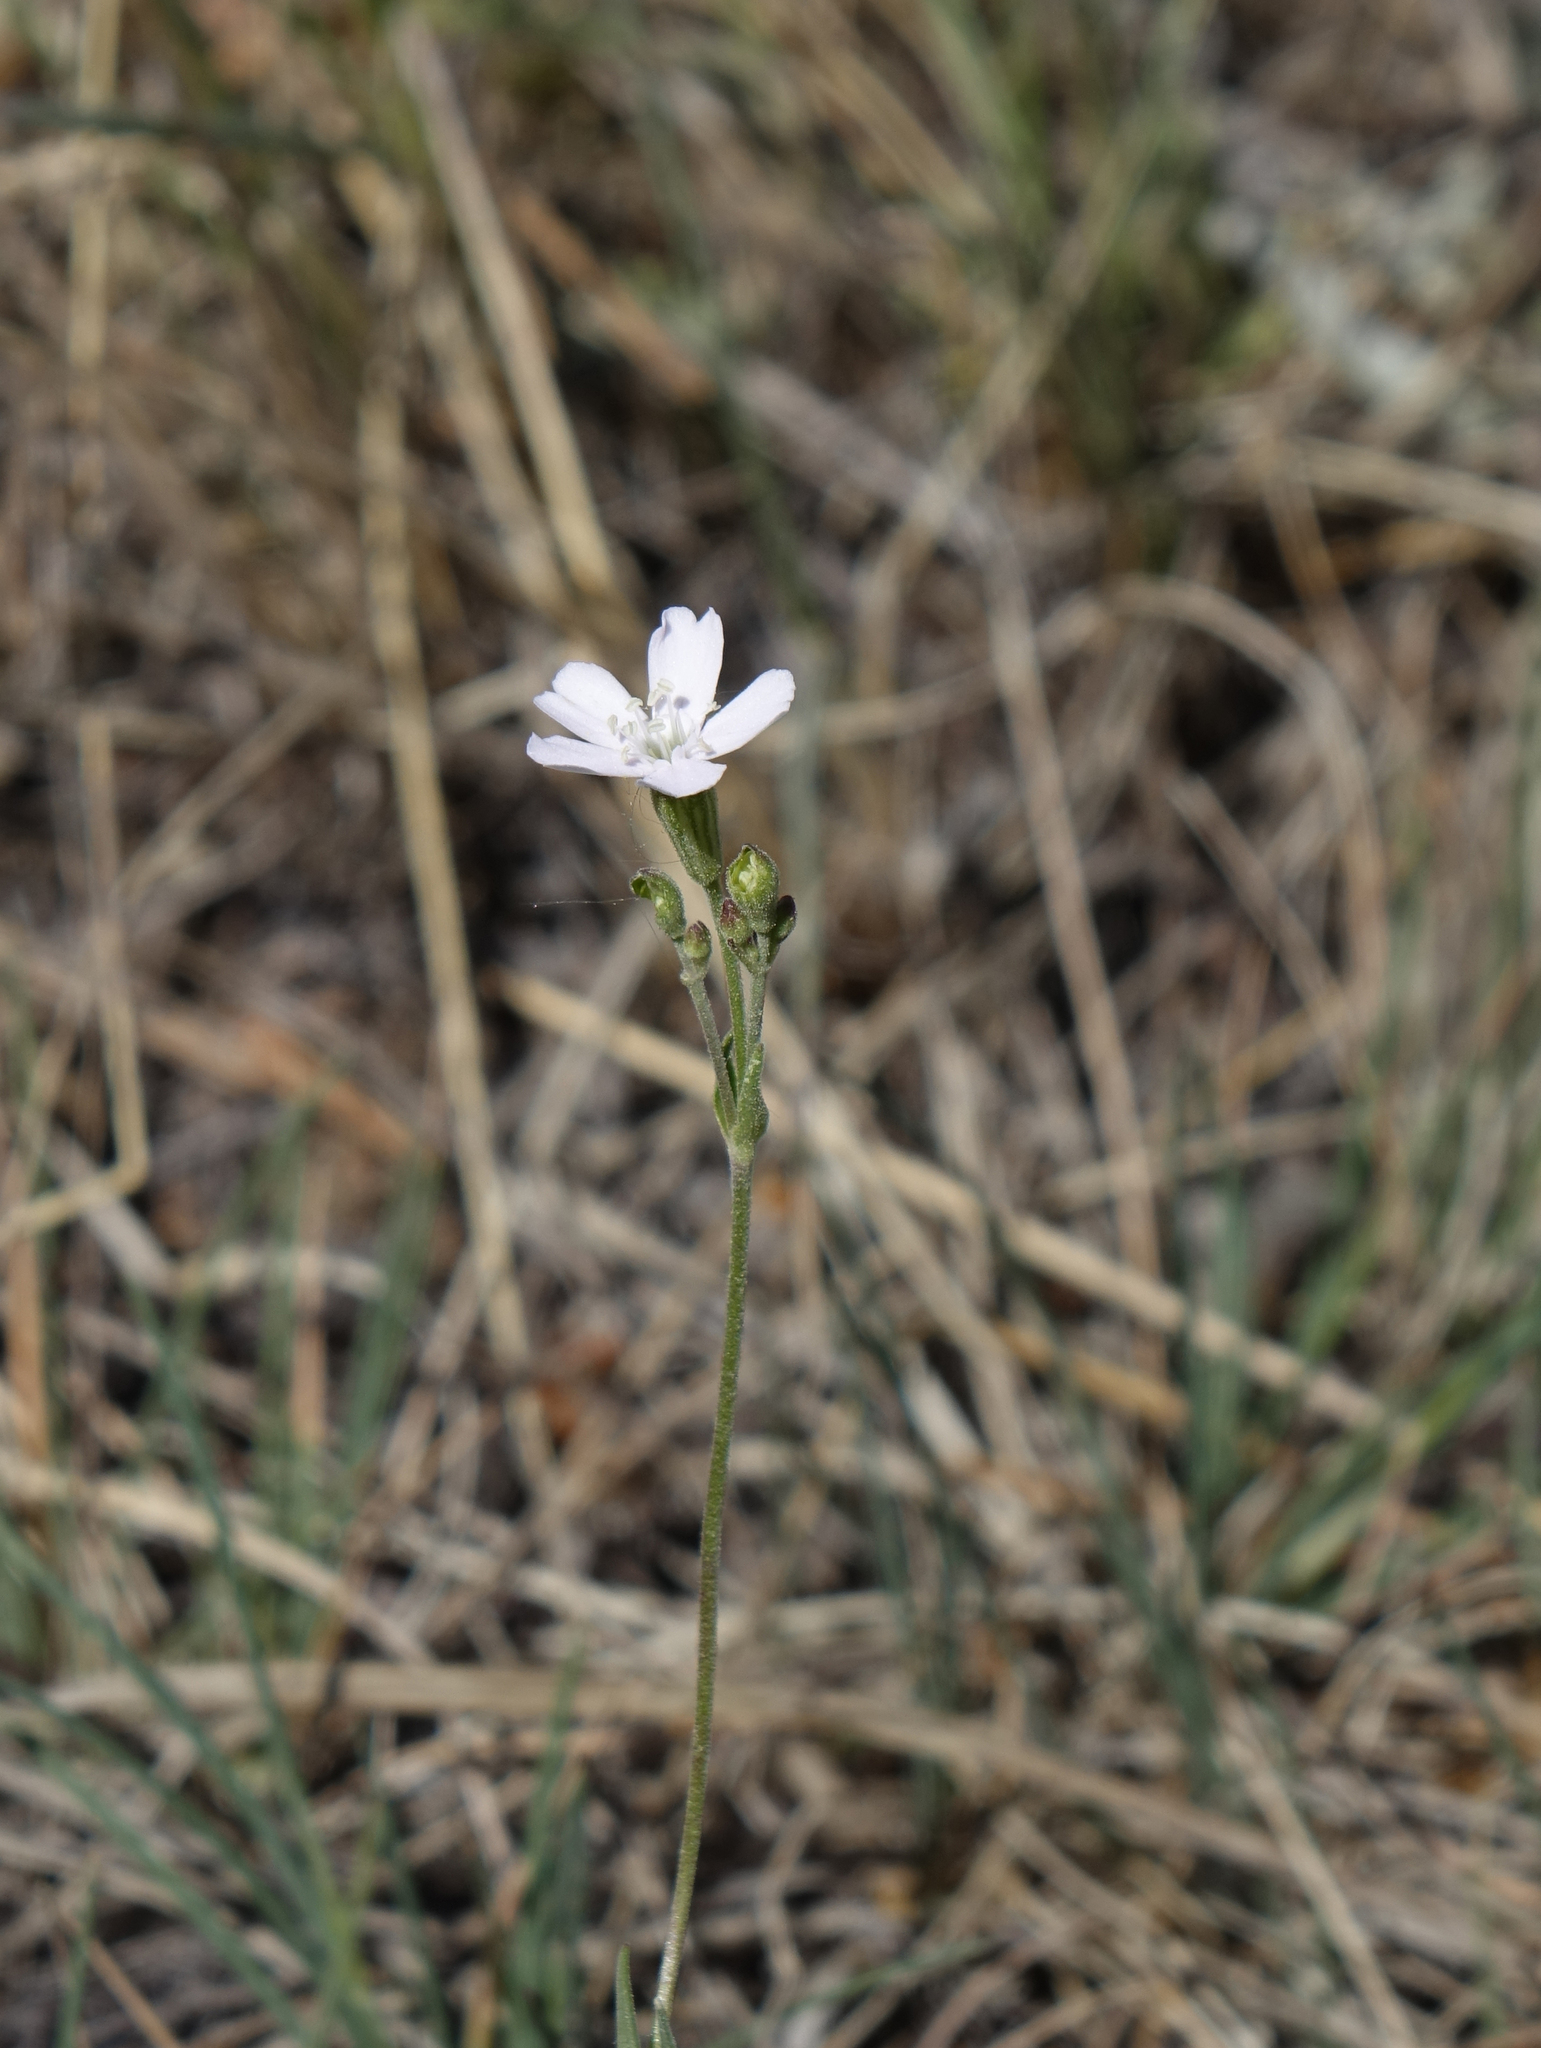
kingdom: Plantae
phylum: Tracheophyta
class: Magnoliopsida
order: Caryophyllales
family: Caryophyllaceae
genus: Silene
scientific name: Silene orientalimongolica
